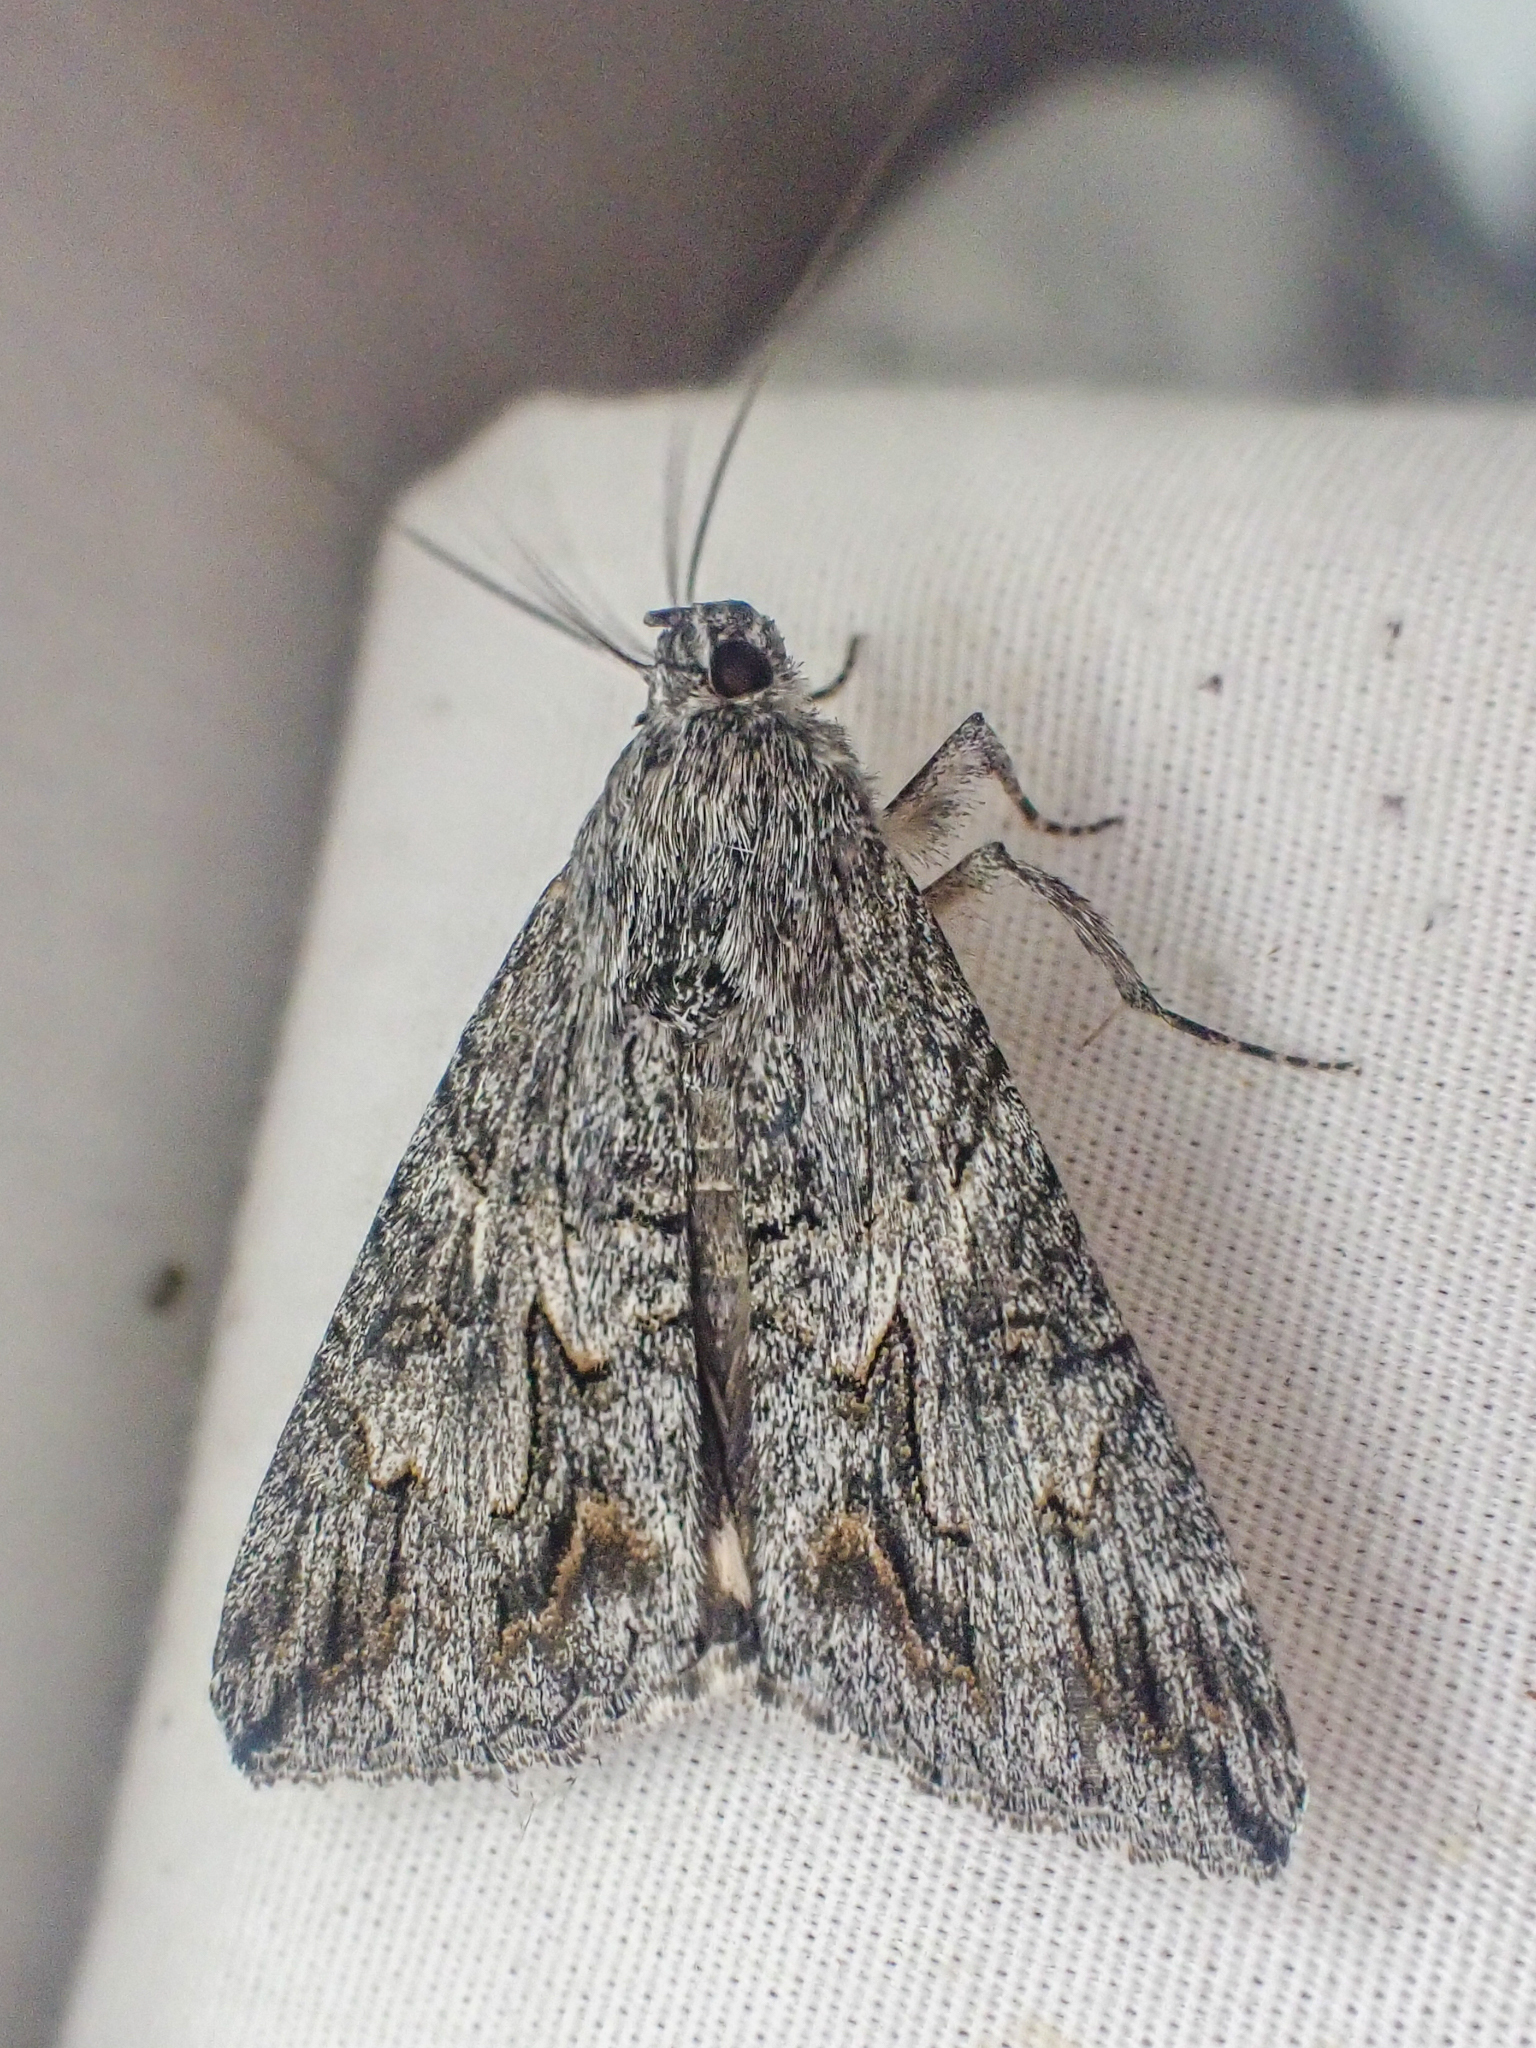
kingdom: Animalia
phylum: Arthropoda
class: Insecta
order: Lepidoptera
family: Erebidae
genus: Melipotis
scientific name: Melipotis jucunda
